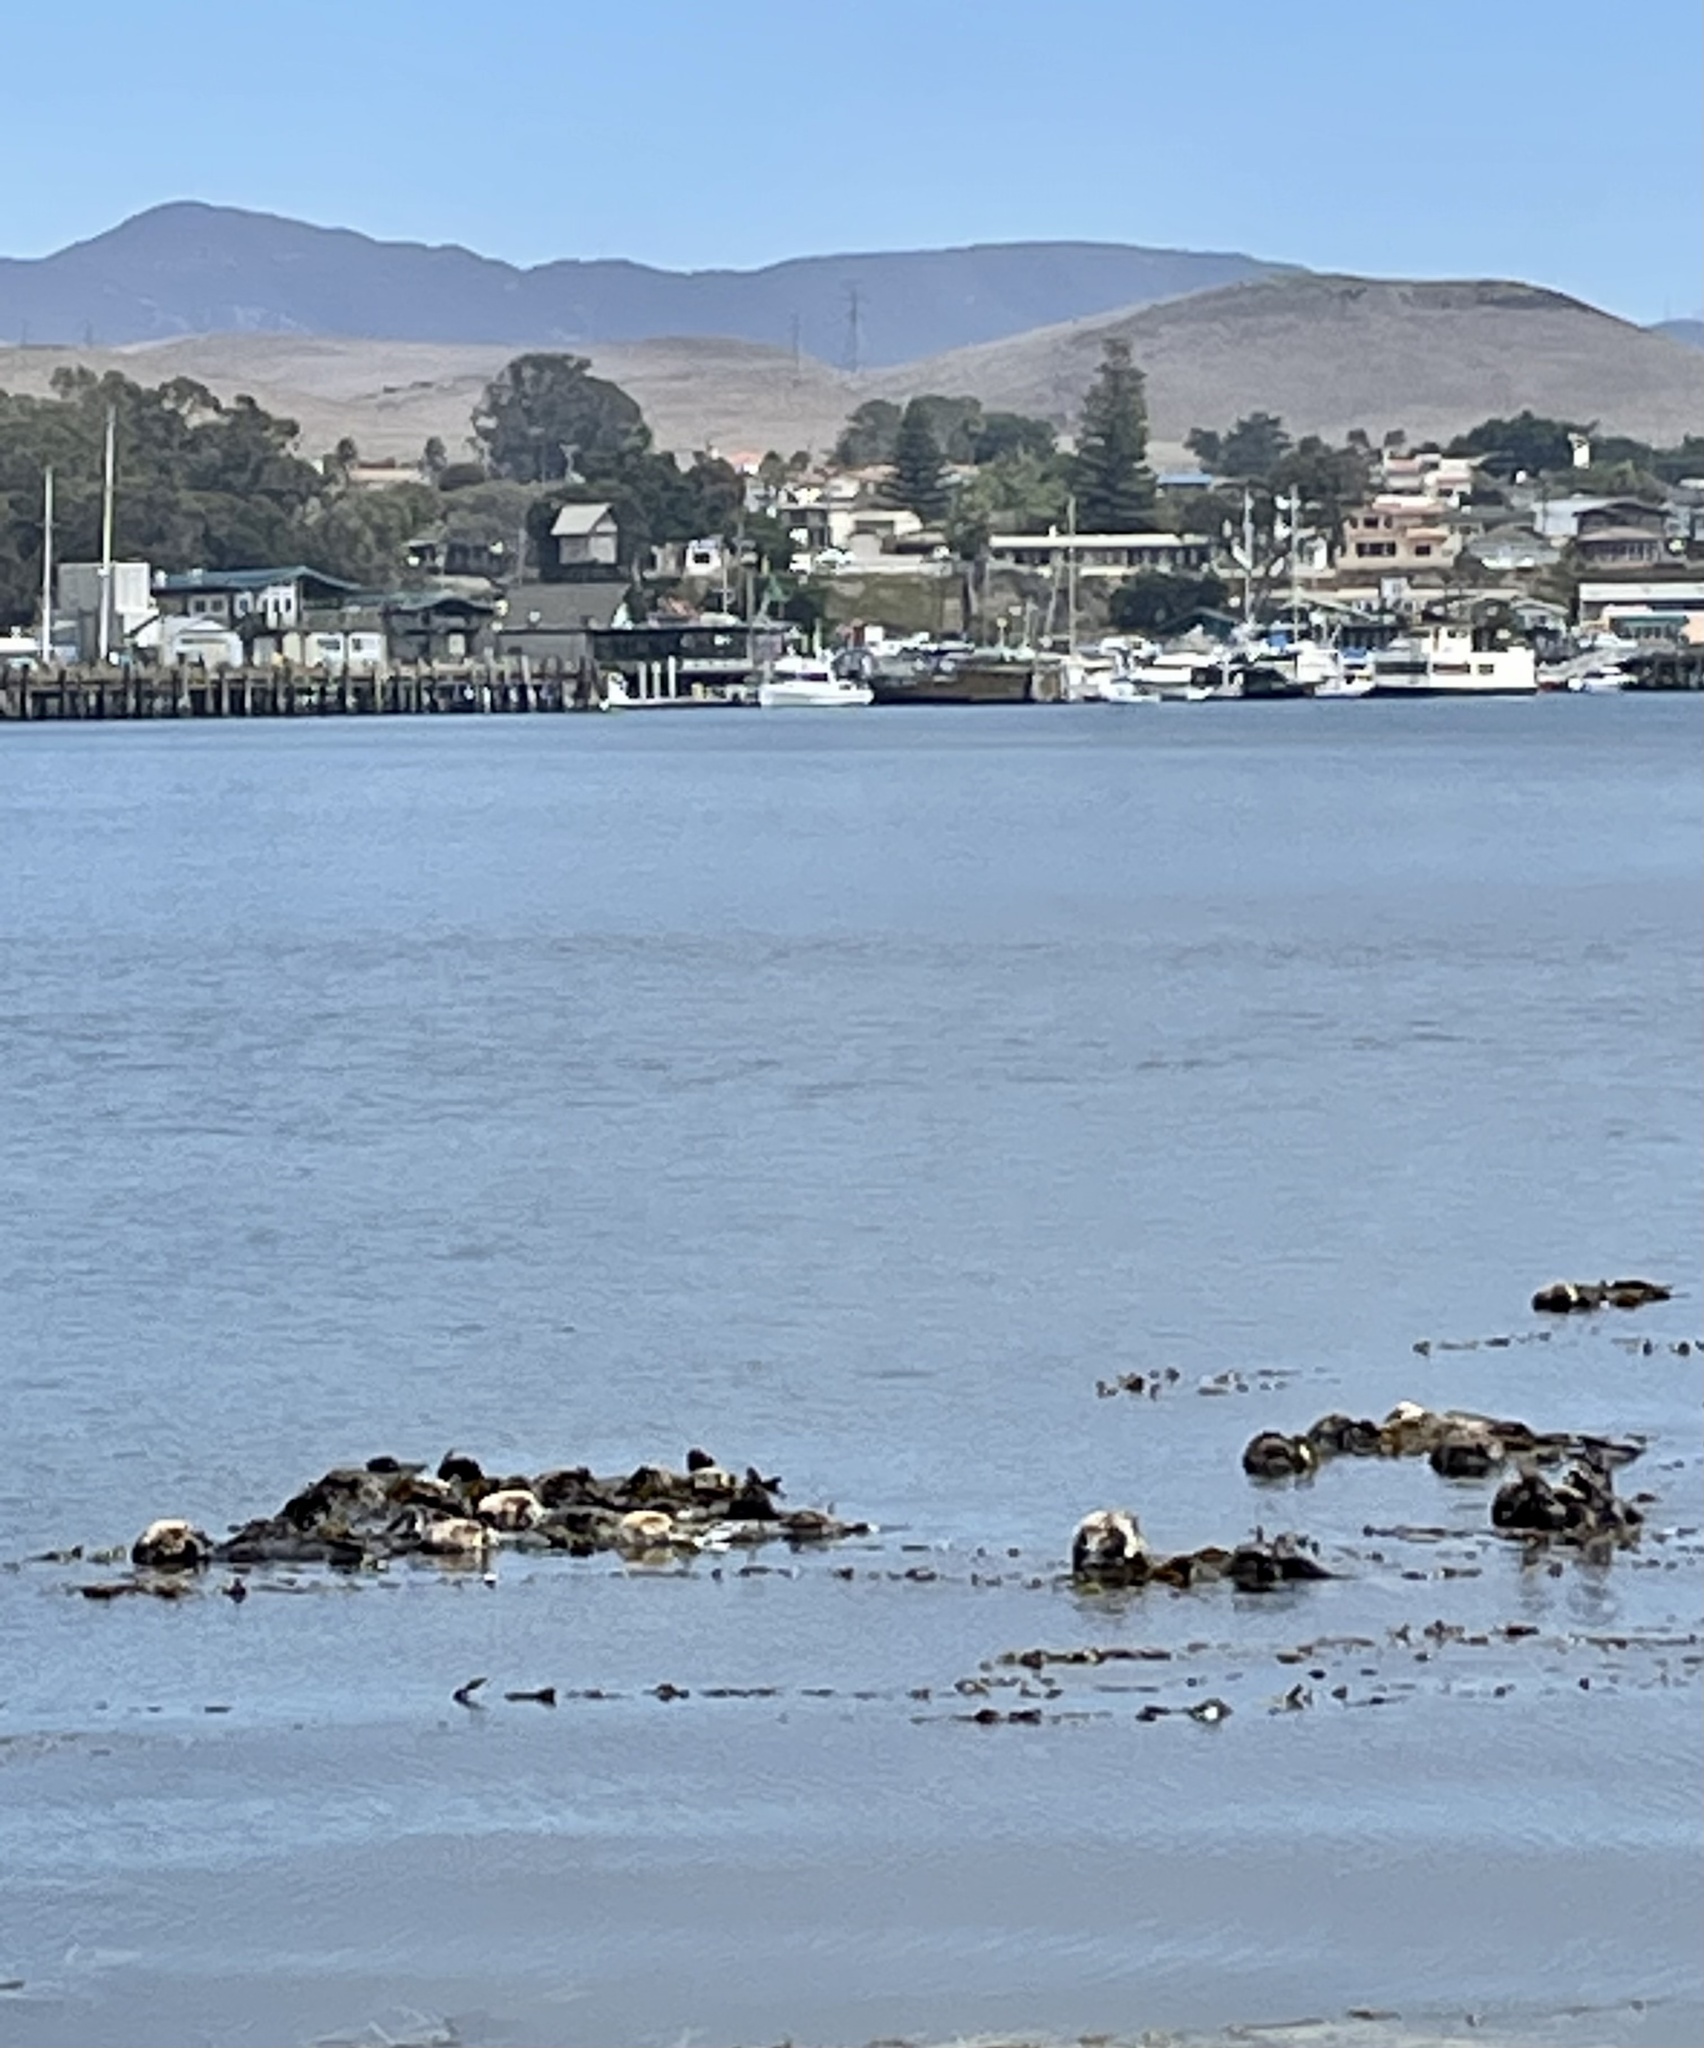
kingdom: Animalia
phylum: Chordata
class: Mammalia
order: Carnivora
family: Mustelidae
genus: Enhydra
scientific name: Enhydra lutris
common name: Sea otter
